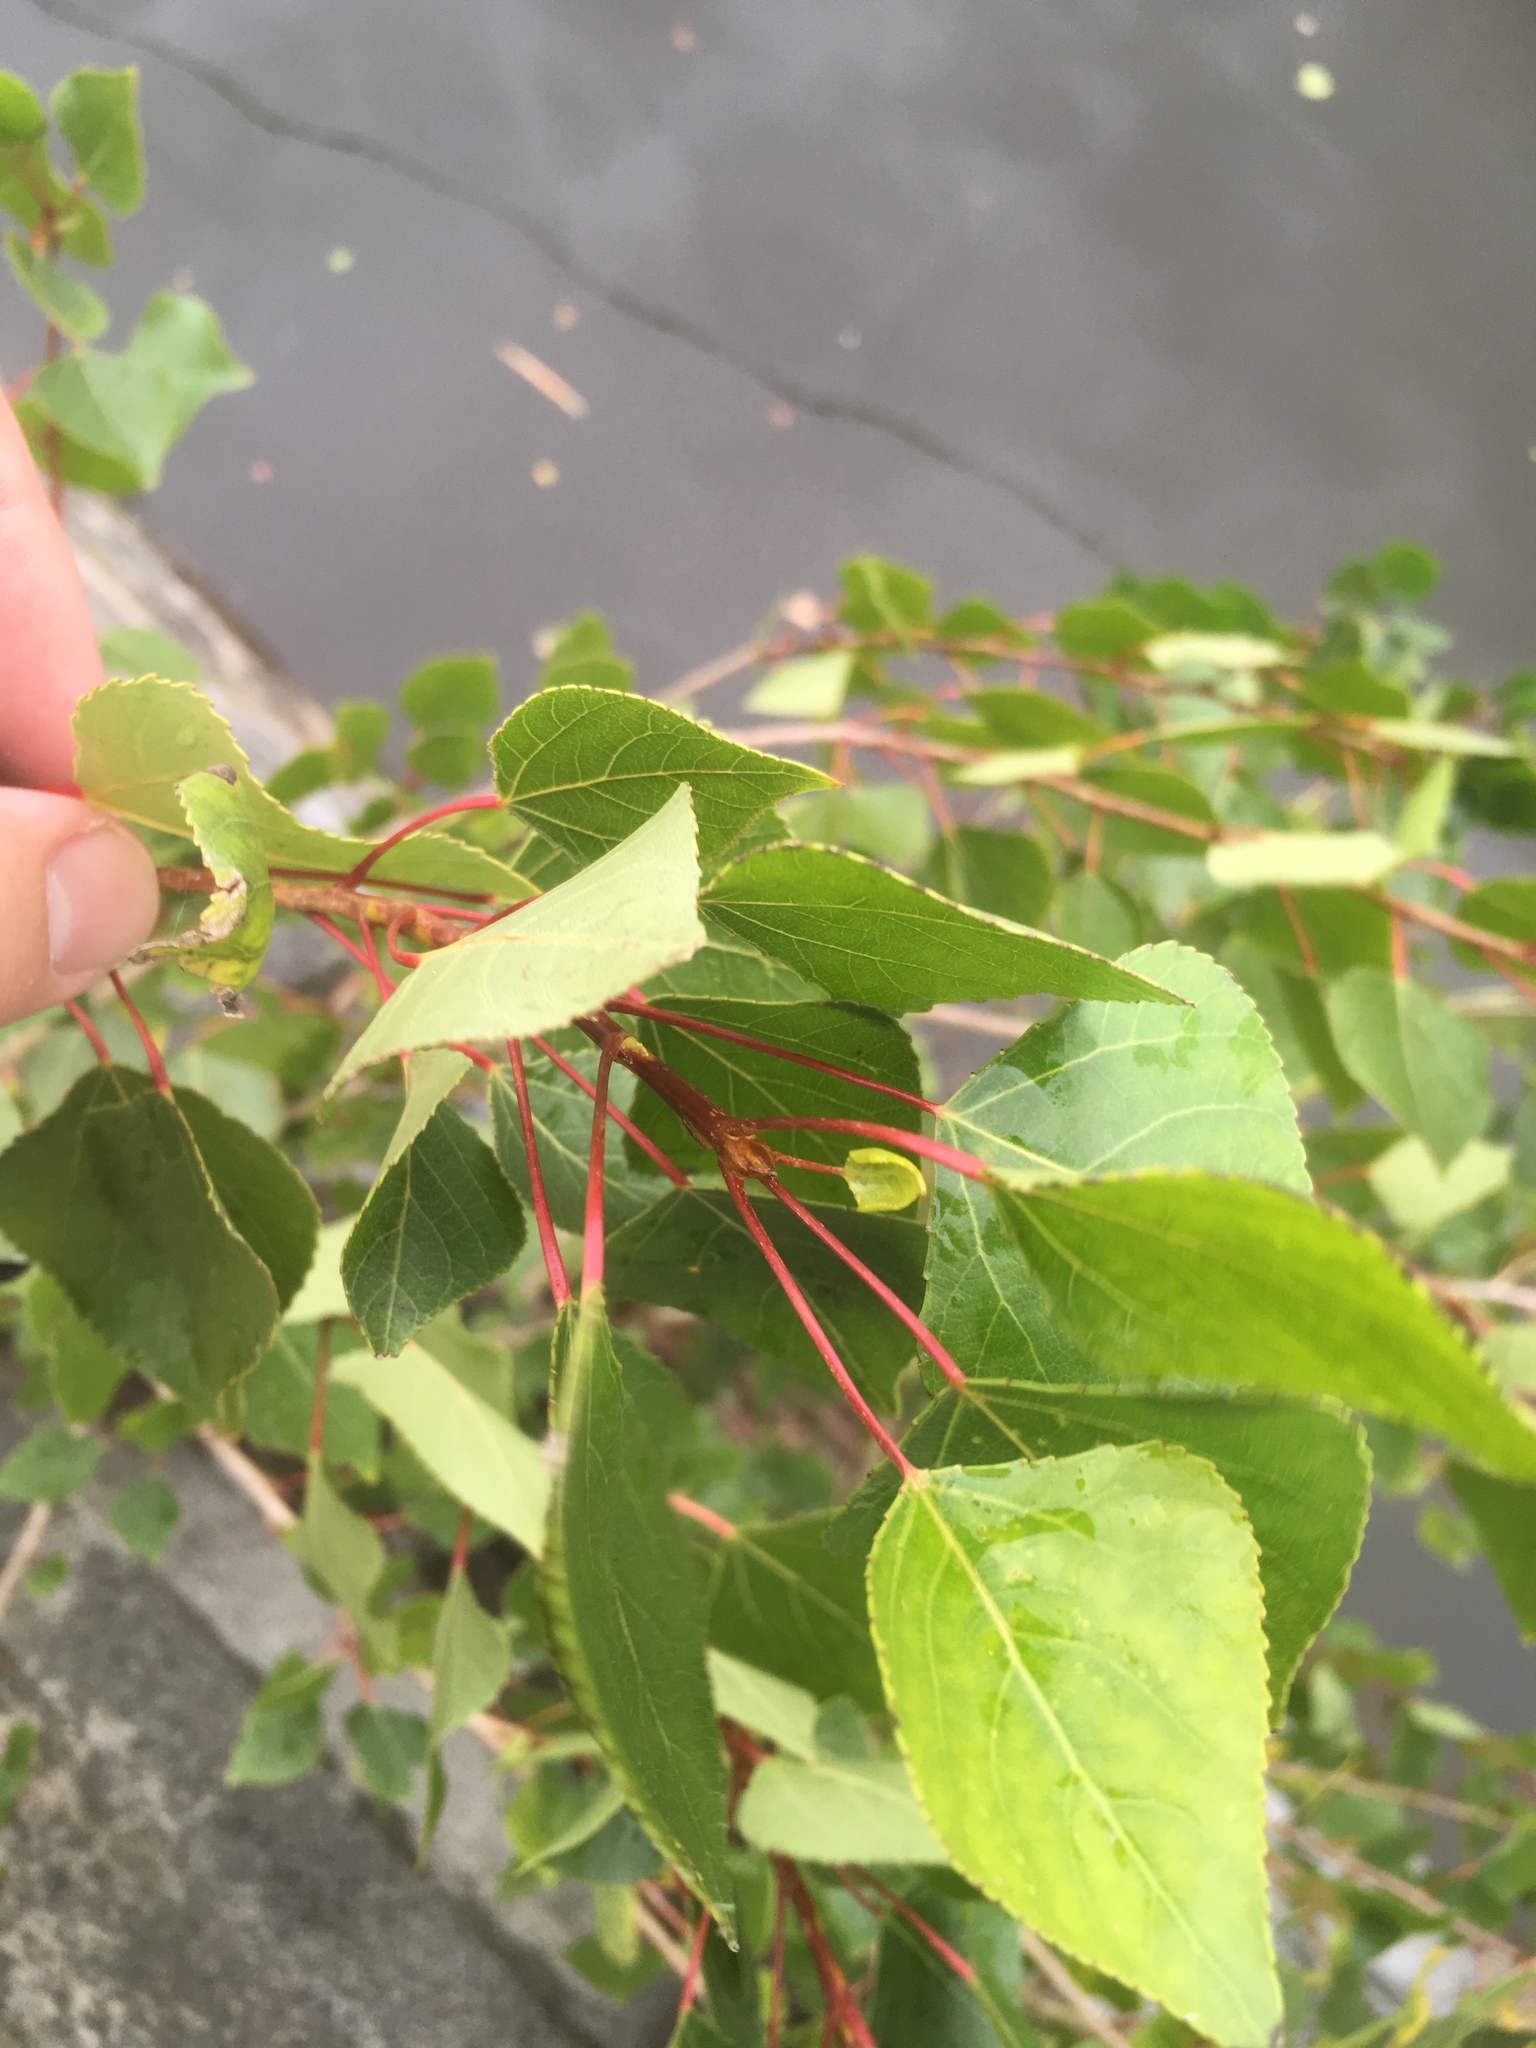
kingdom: Plantae
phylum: Tracheophyta
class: Magnoliopsida
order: Malpighiales
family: Salicaceae
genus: Populus
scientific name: Populus nigra
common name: Black poplar
